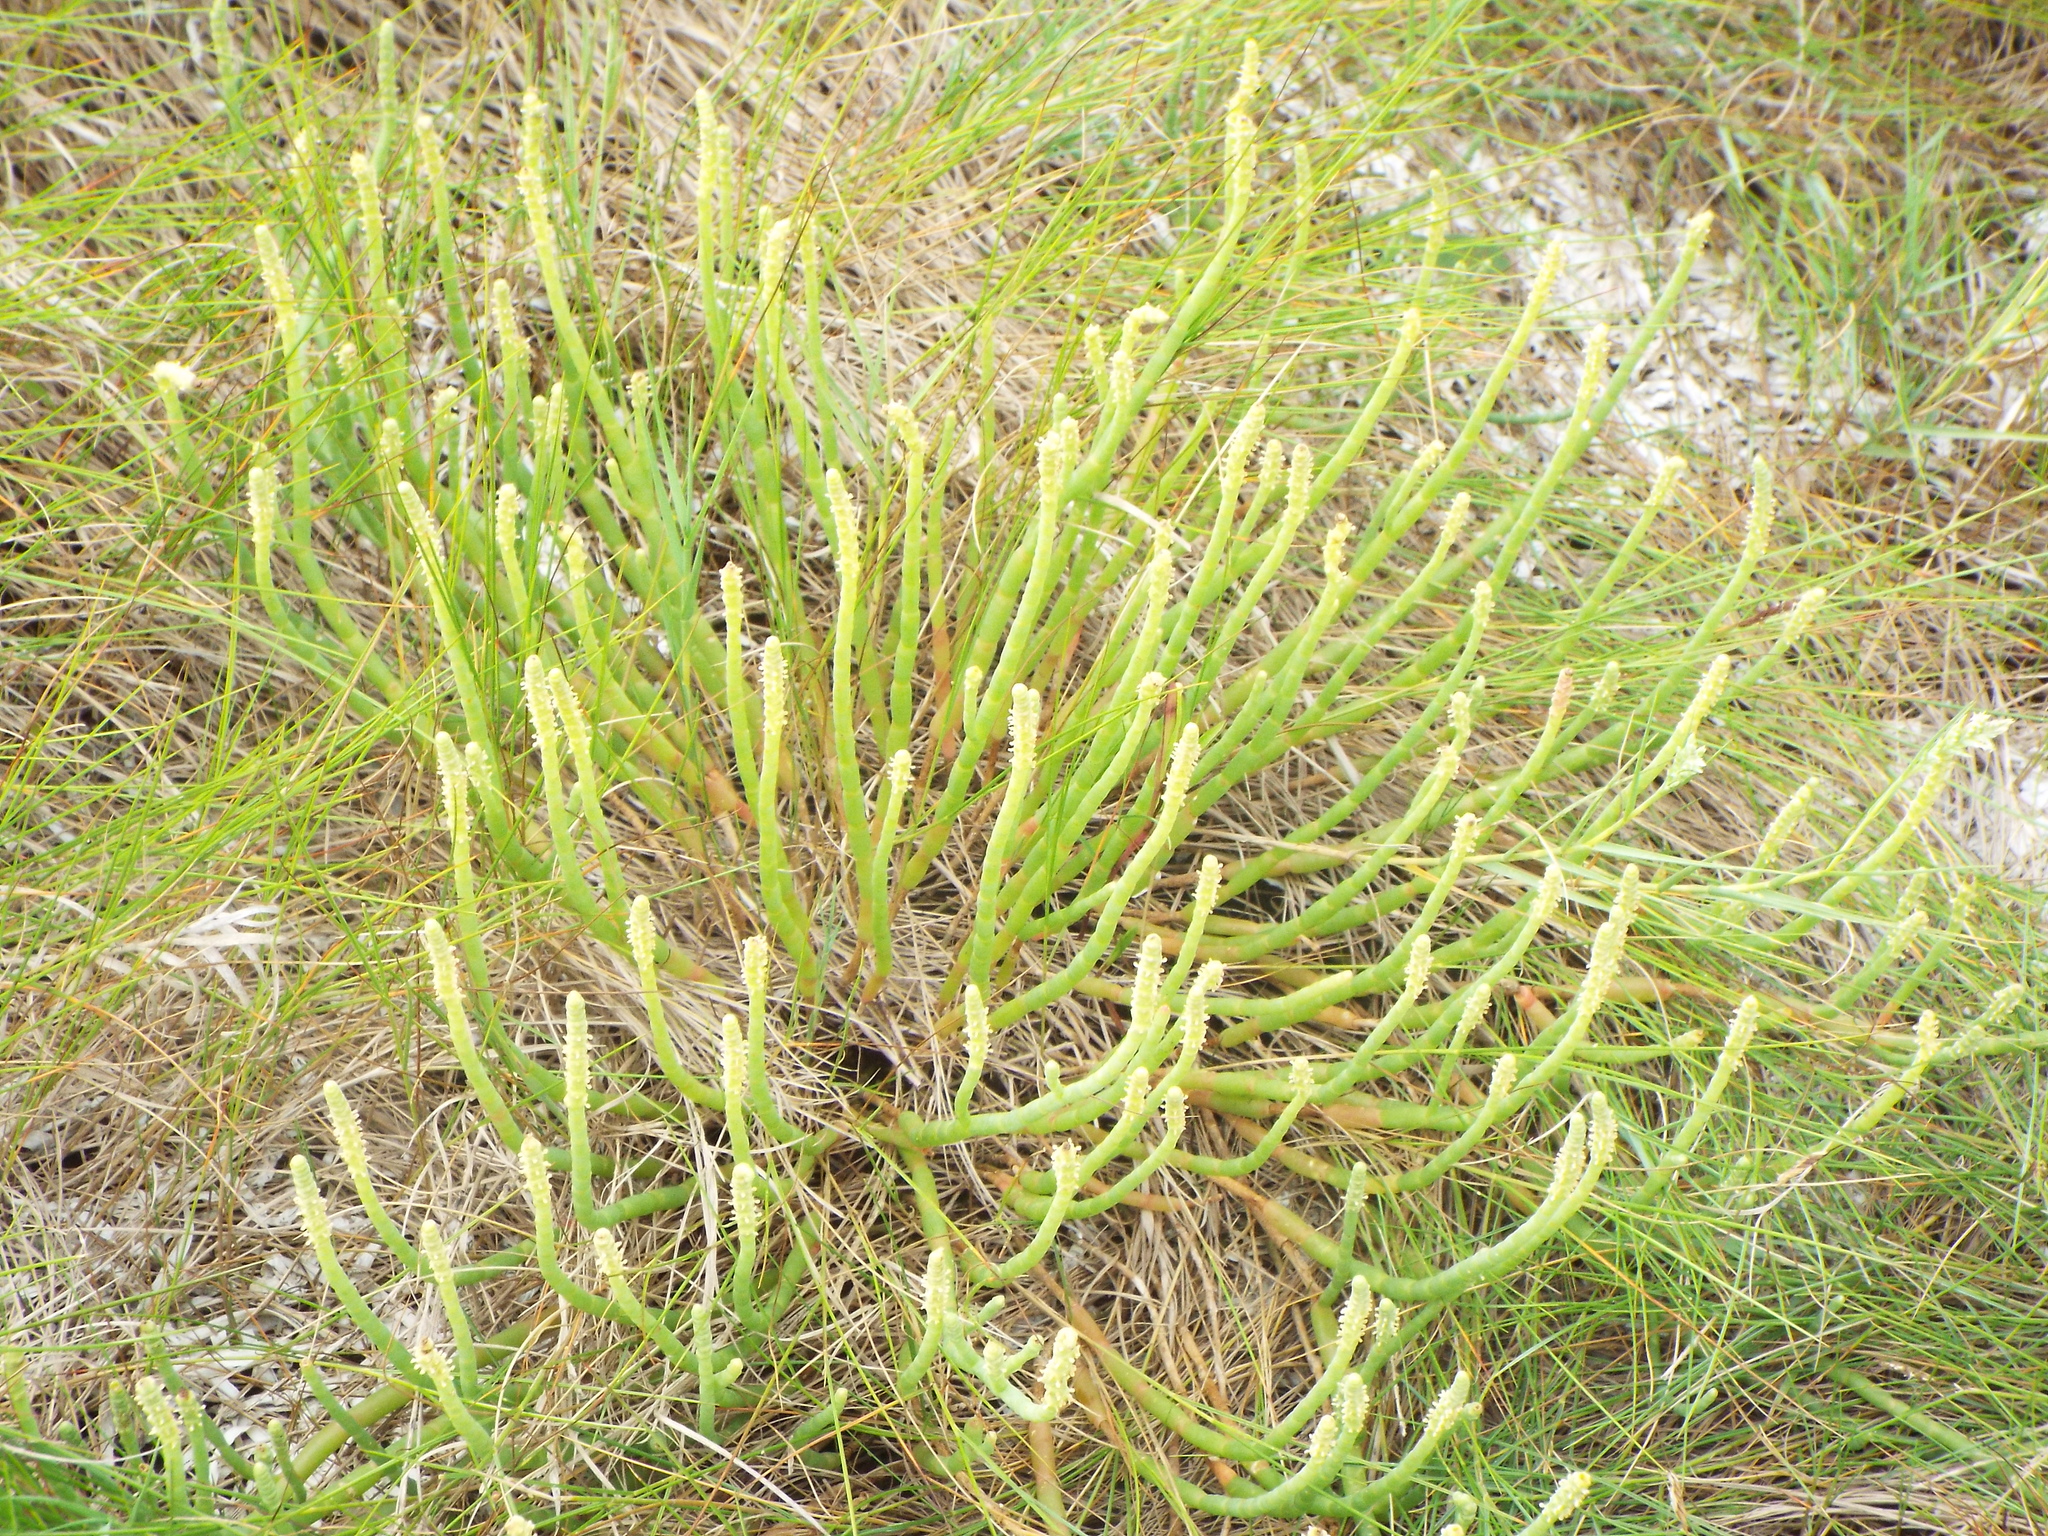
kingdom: Plantae
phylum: Tracheophyta
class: Magnoliopsida
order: Caryophyllales
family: Amaranthaceae
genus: Salicornia
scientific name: Salicornia perennis
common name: Chicken claws
